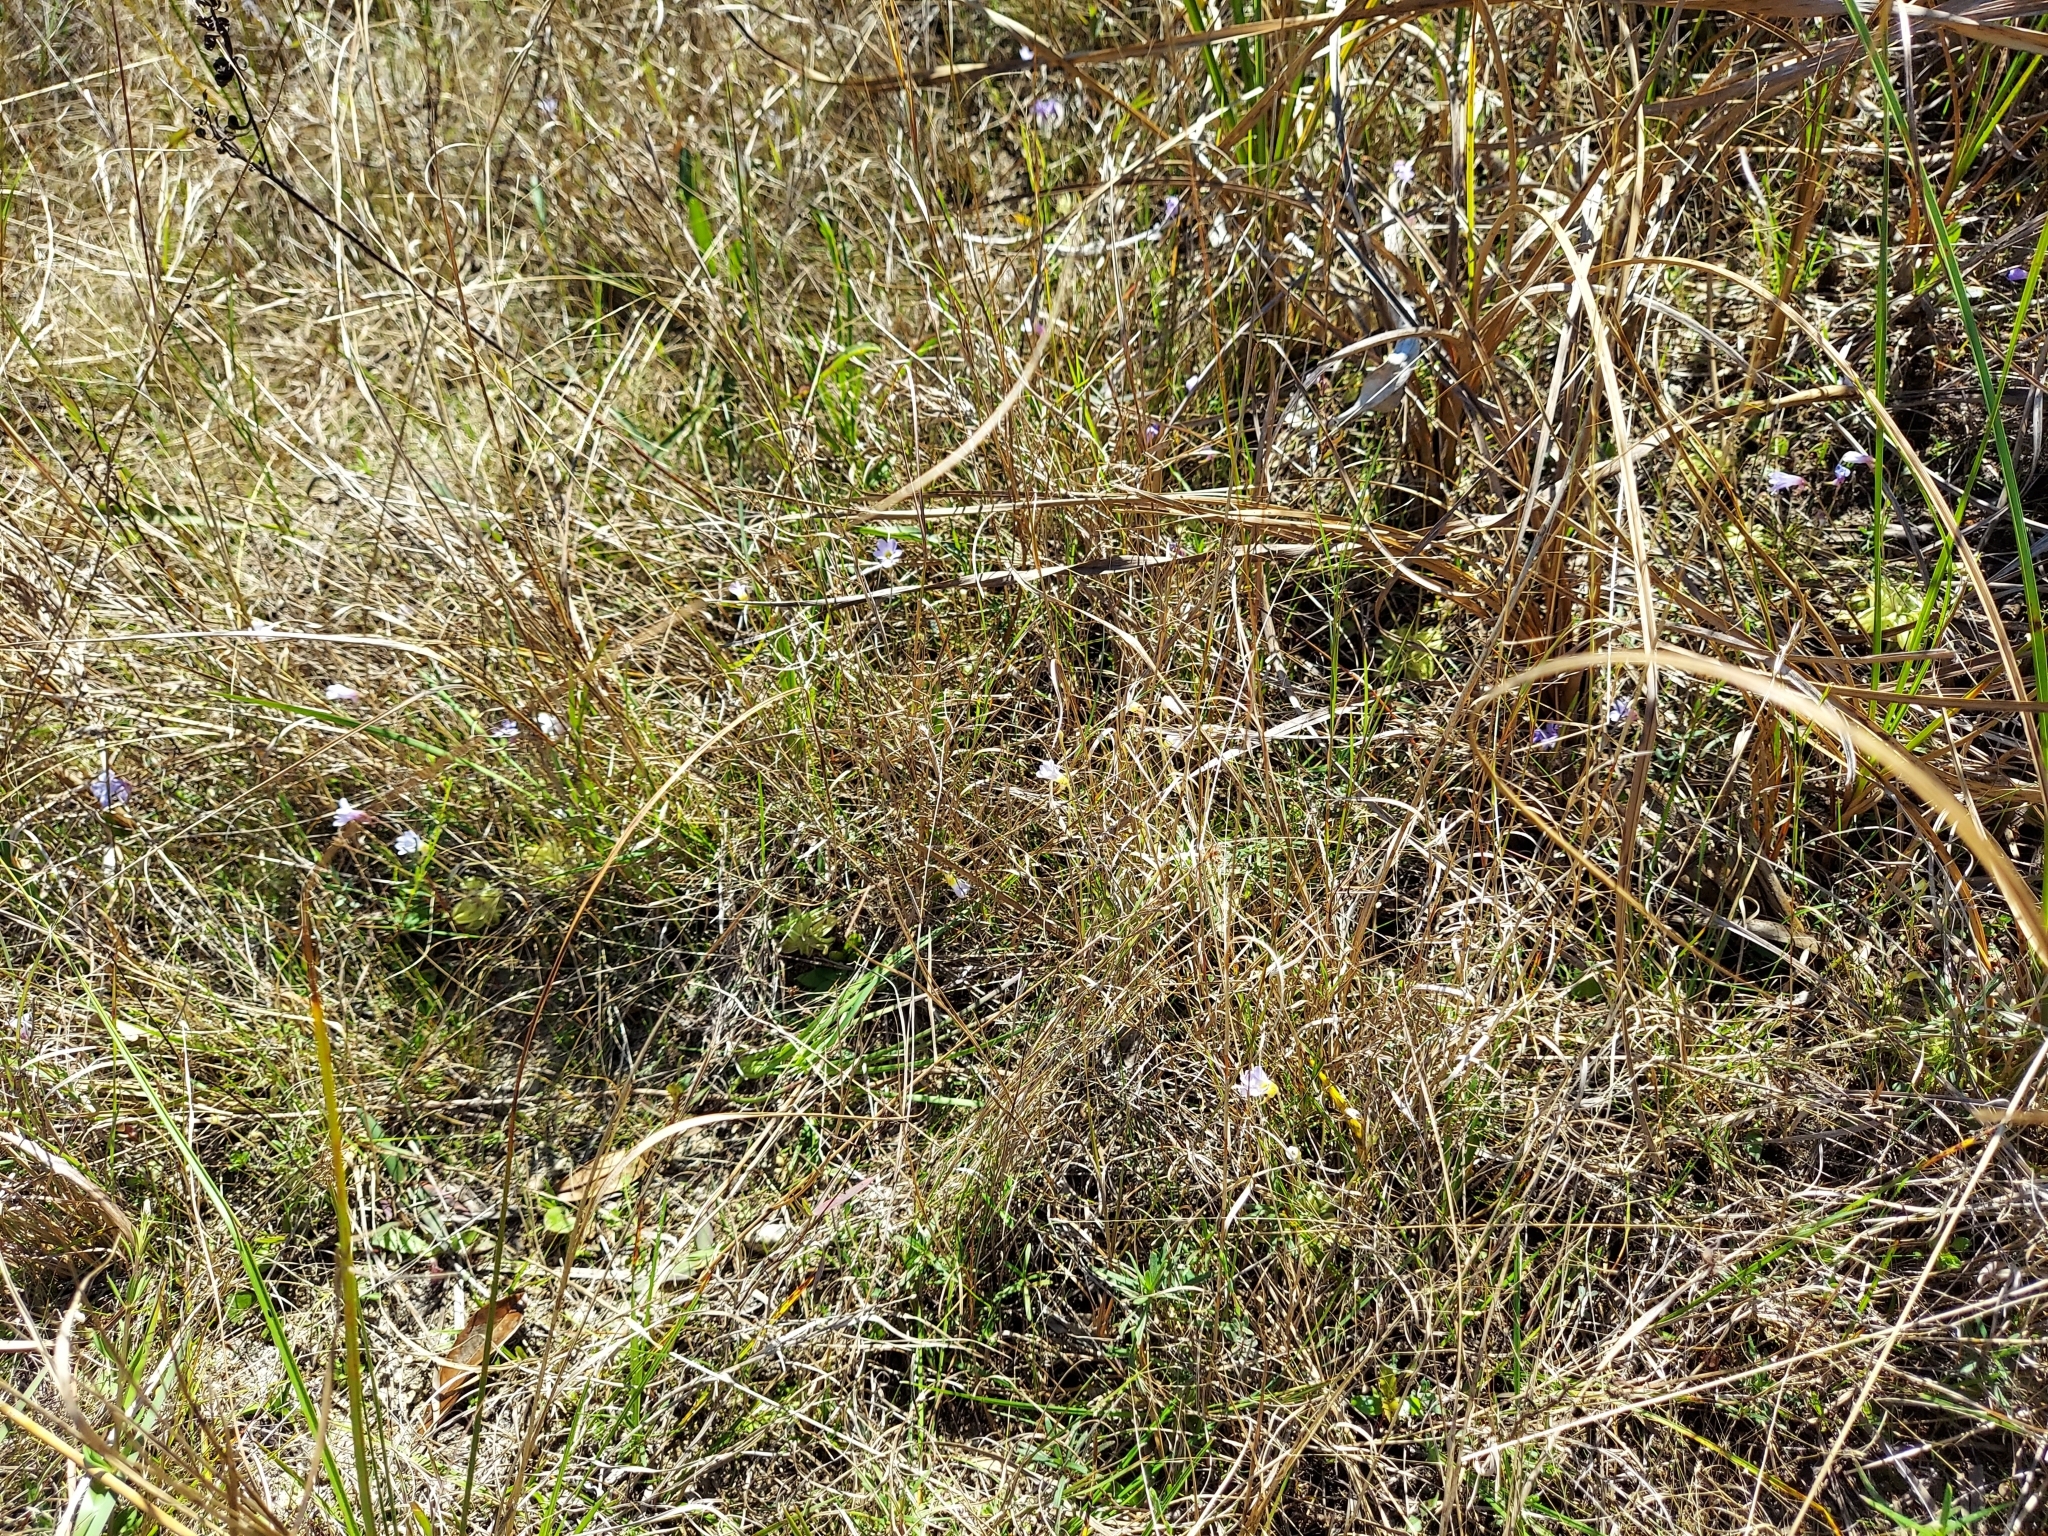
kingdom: Plantae
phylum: Tracheophyta
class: Magnoliopsida
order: Lamiales
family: Lentibulariaceae
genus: Pinguicula
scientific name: Pinguicula pumila
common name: Small butterwort
